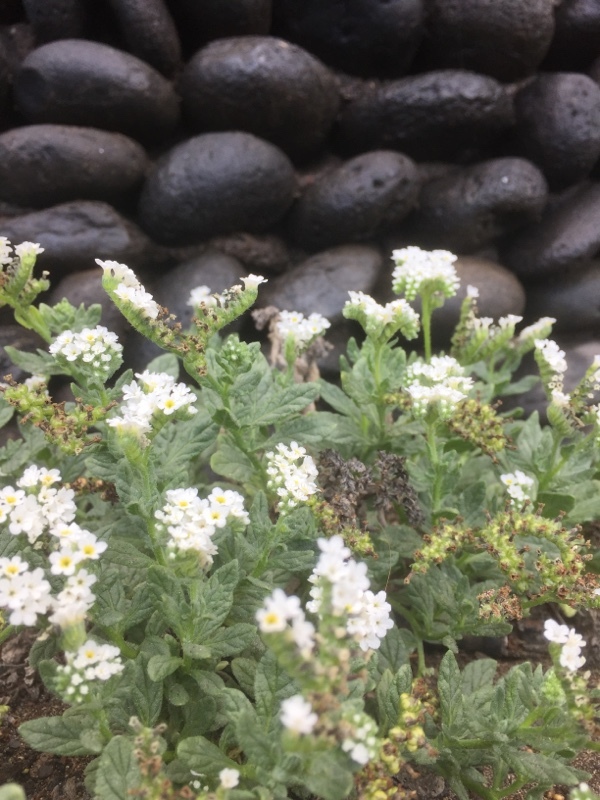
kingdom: Plantae
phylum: Tracheophyta
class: Magnoliopsida
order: Boraginales
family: Heliotropiaceae
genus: Heliotropium
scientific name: Heliotropium ramosissimum
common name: Wavy heliotrope
